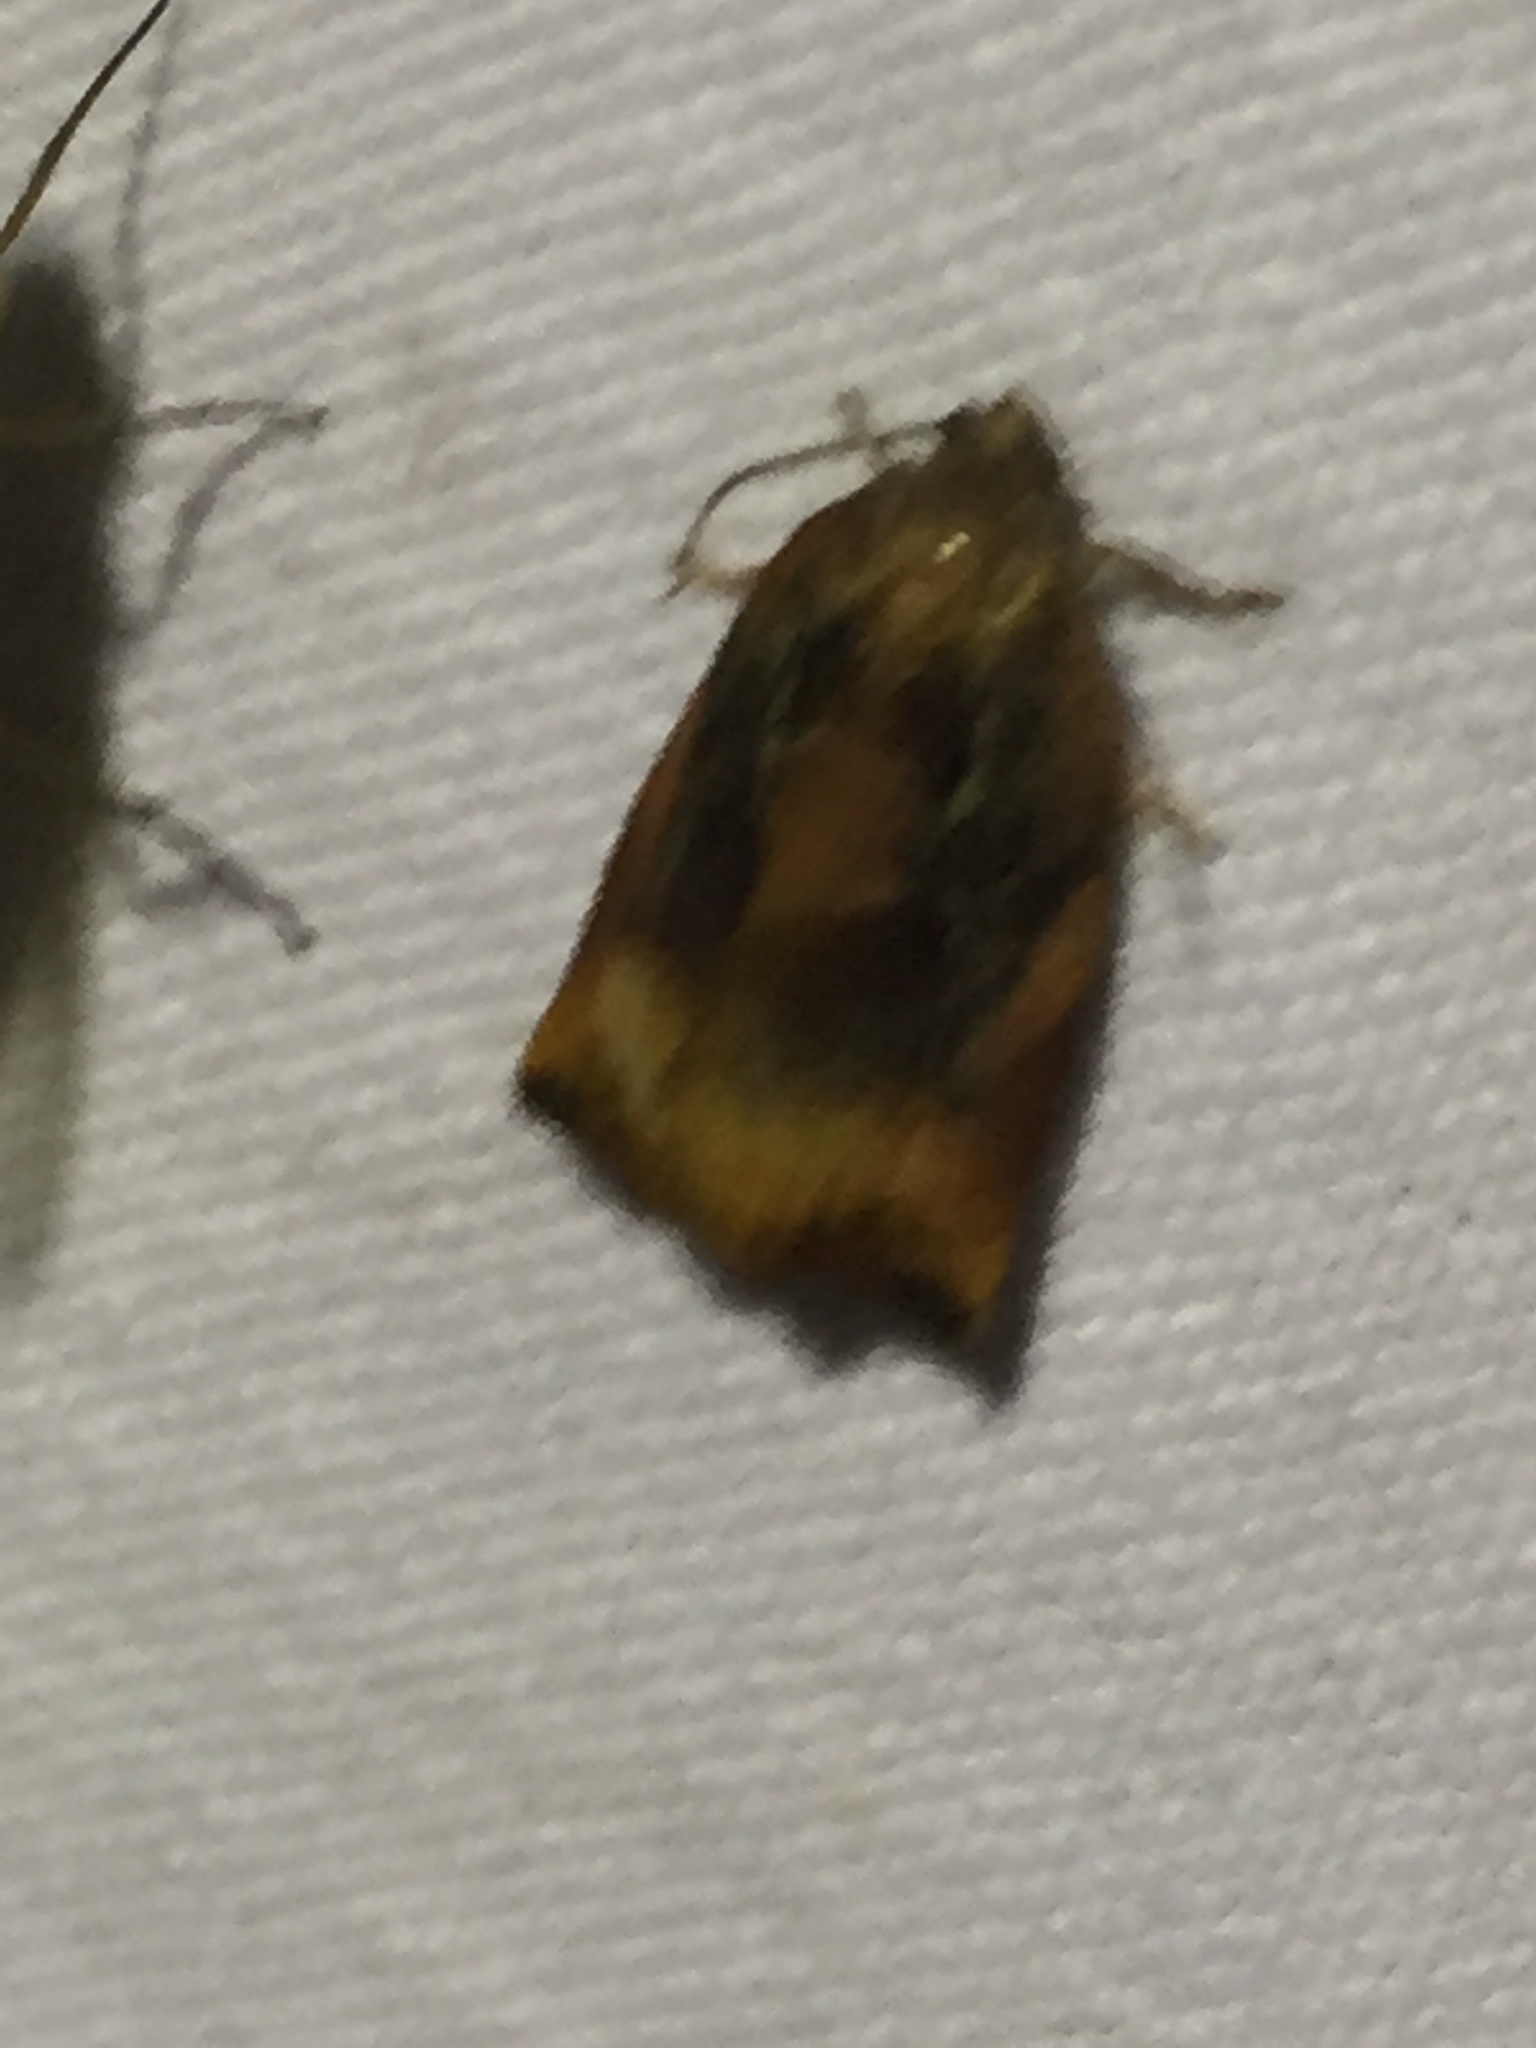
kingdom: Animalia
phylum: Arthropoda
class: Insecta
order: Lepidoptera
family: Tortricidae
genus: Archips
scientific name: Archips podana
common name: Large fruit-tree tortrix
